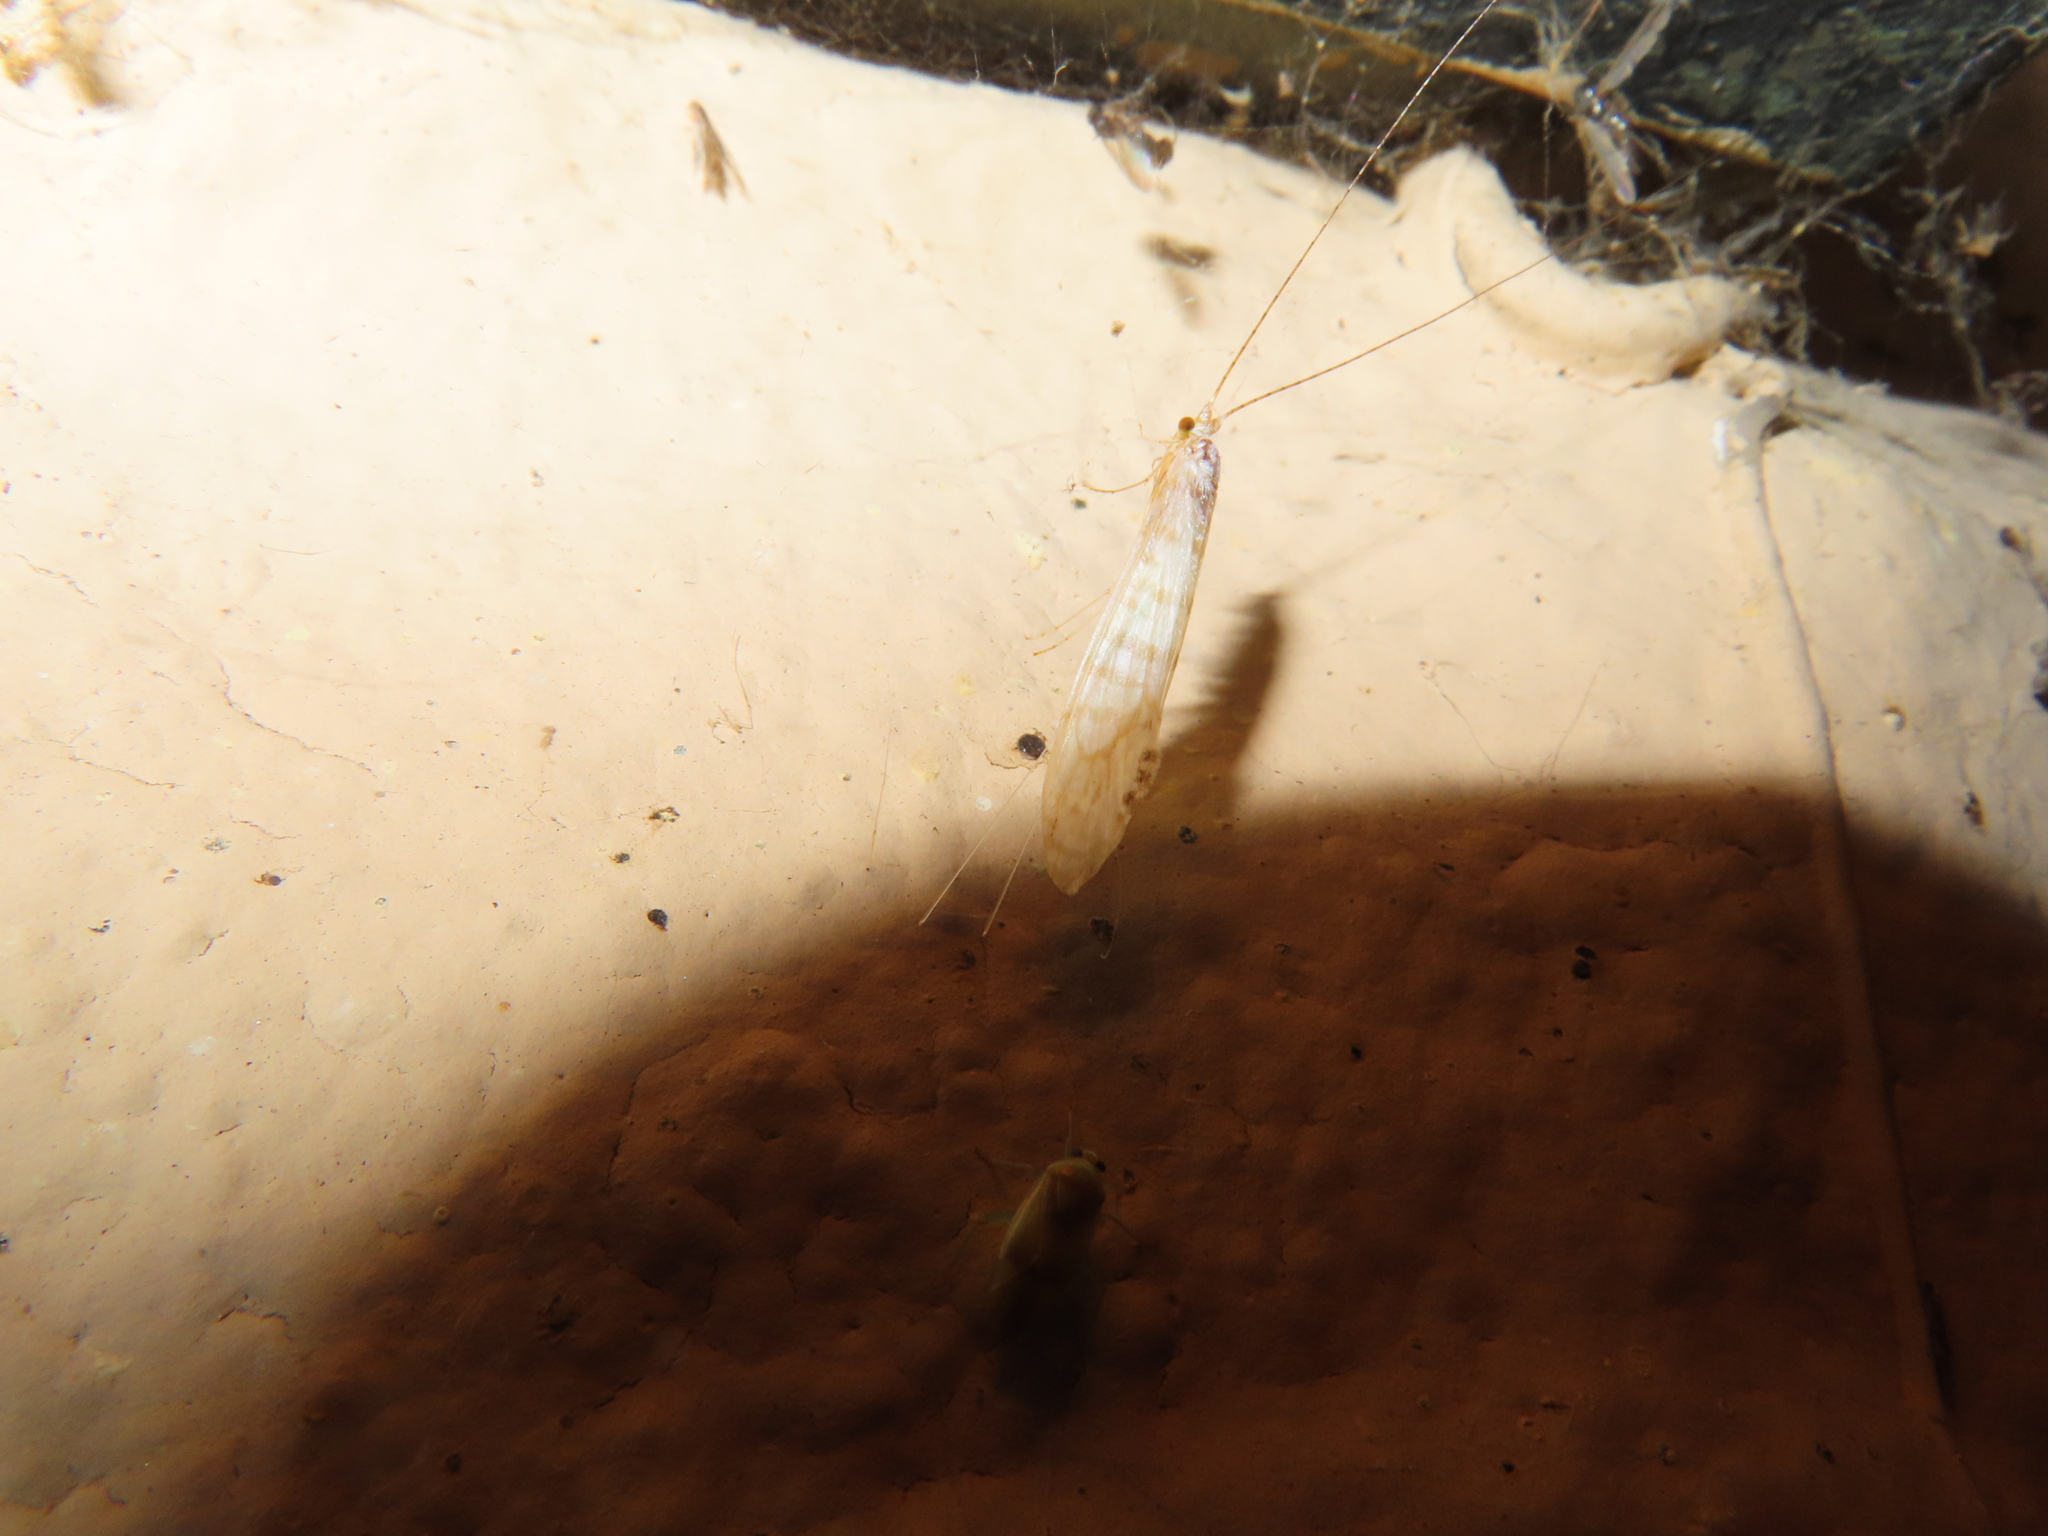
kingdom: Animalia
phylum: Arthropoda
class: Insecta
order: Trichoptera
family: Leptoceridae
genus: Nectopsyche
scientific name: Nectopsyche exquisita
